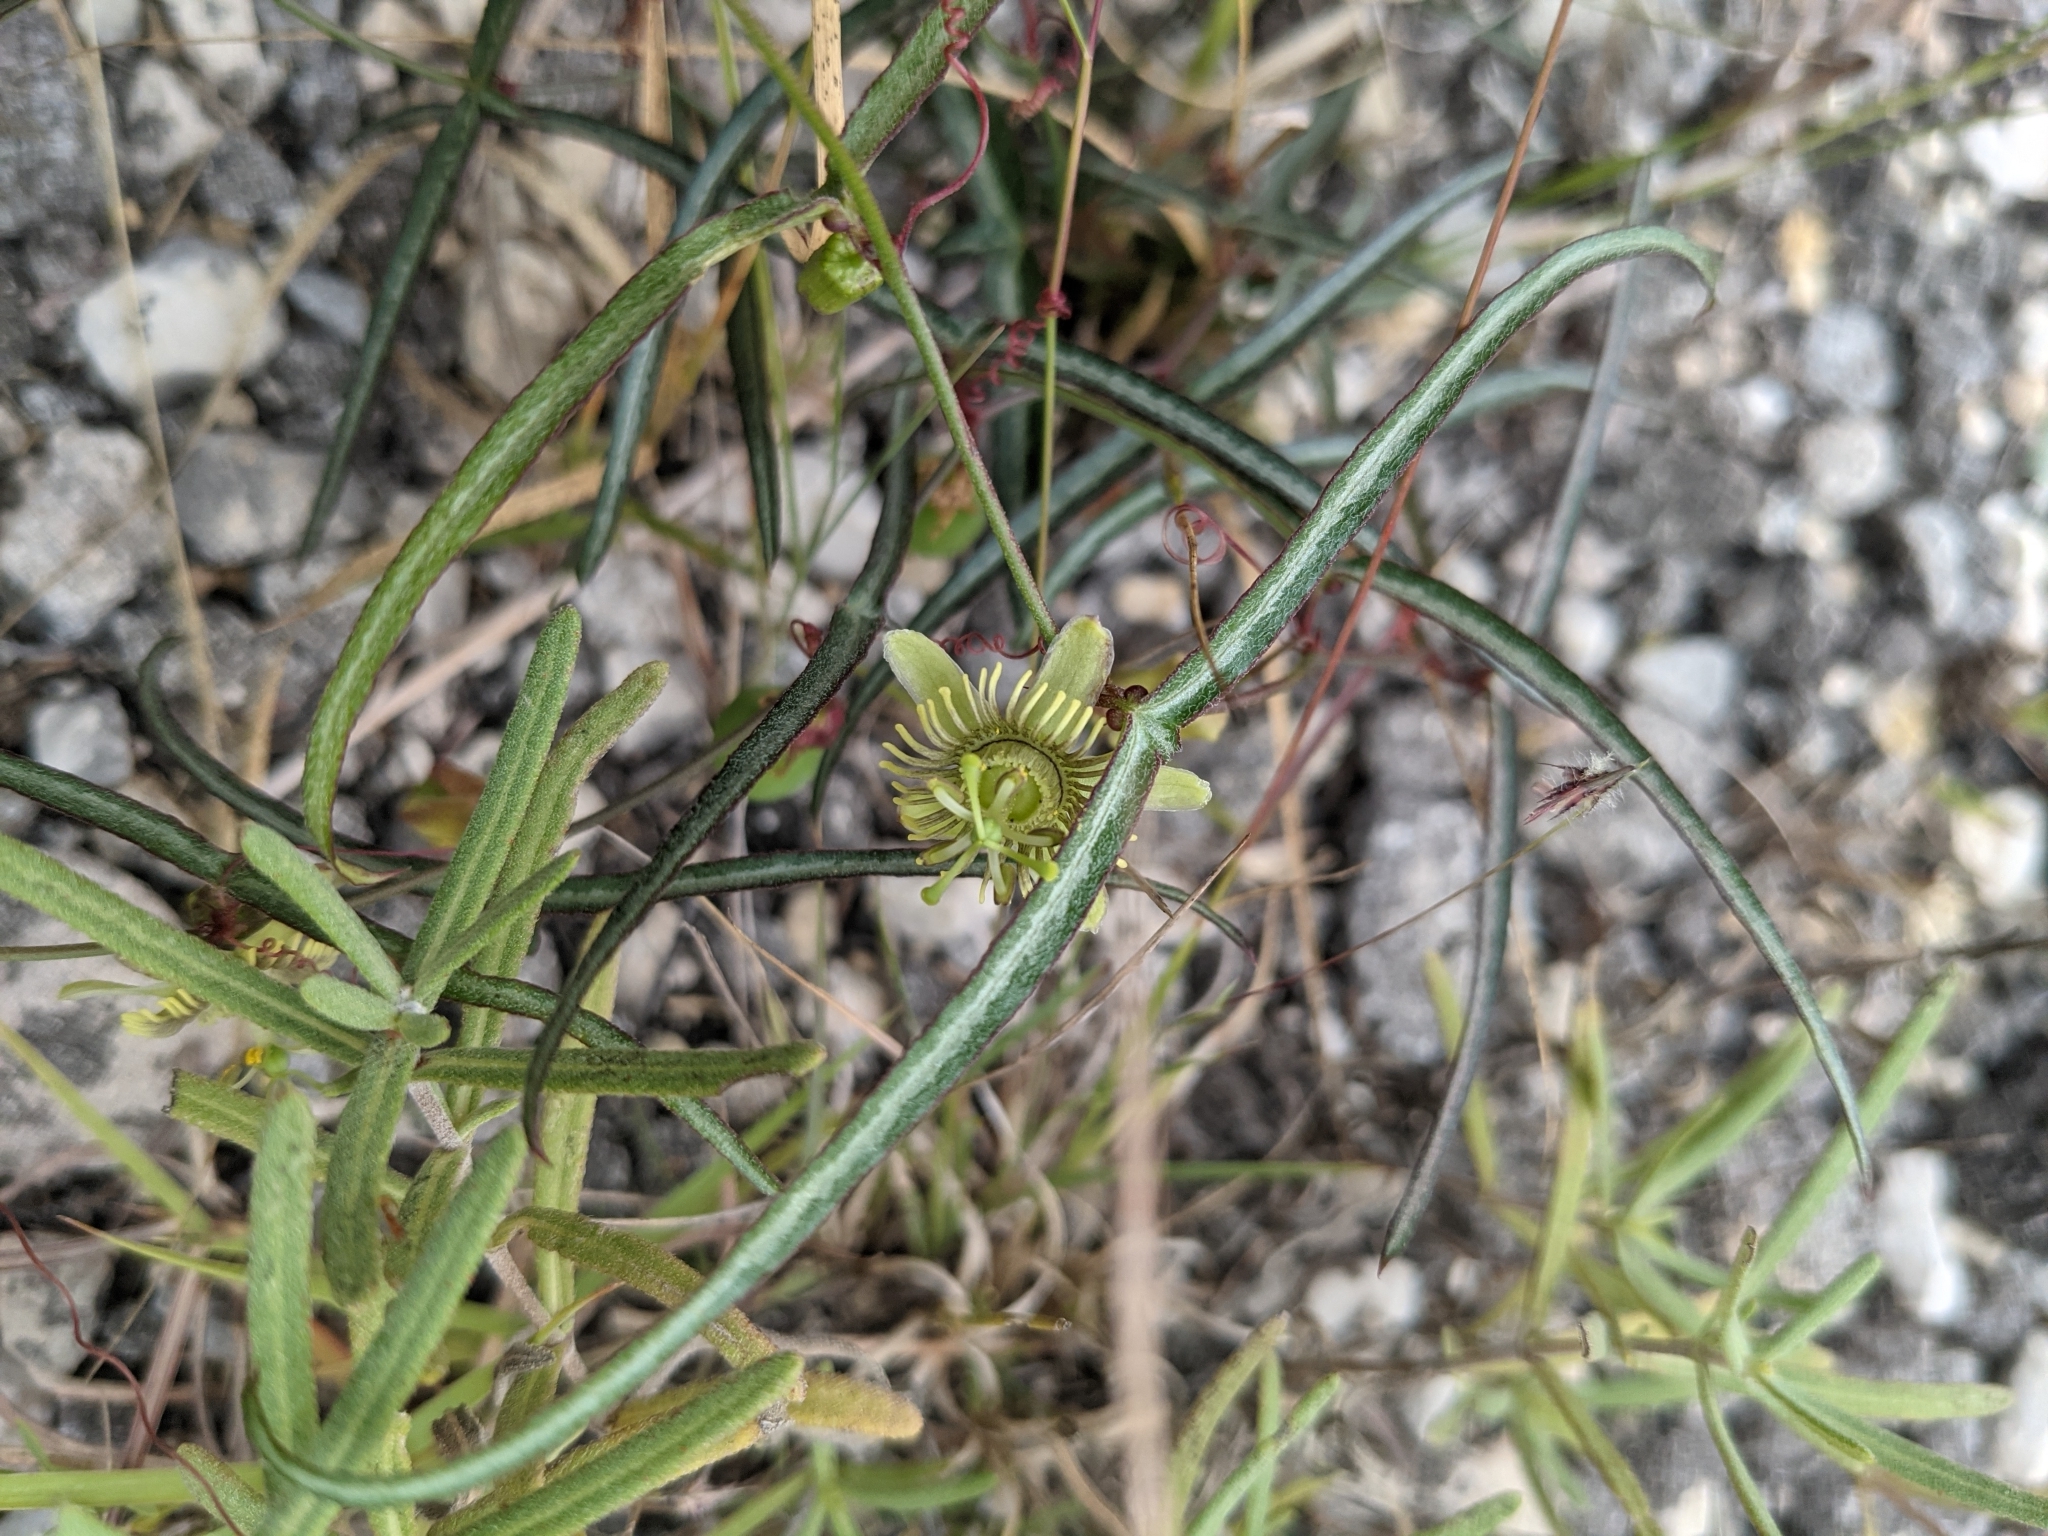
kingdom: Plantae
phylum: Tracheophyta
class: Magnoliopsida
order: Malpighiales
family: Passifloraceae
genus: Passiflora
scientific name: Passiflora tenuiloba
